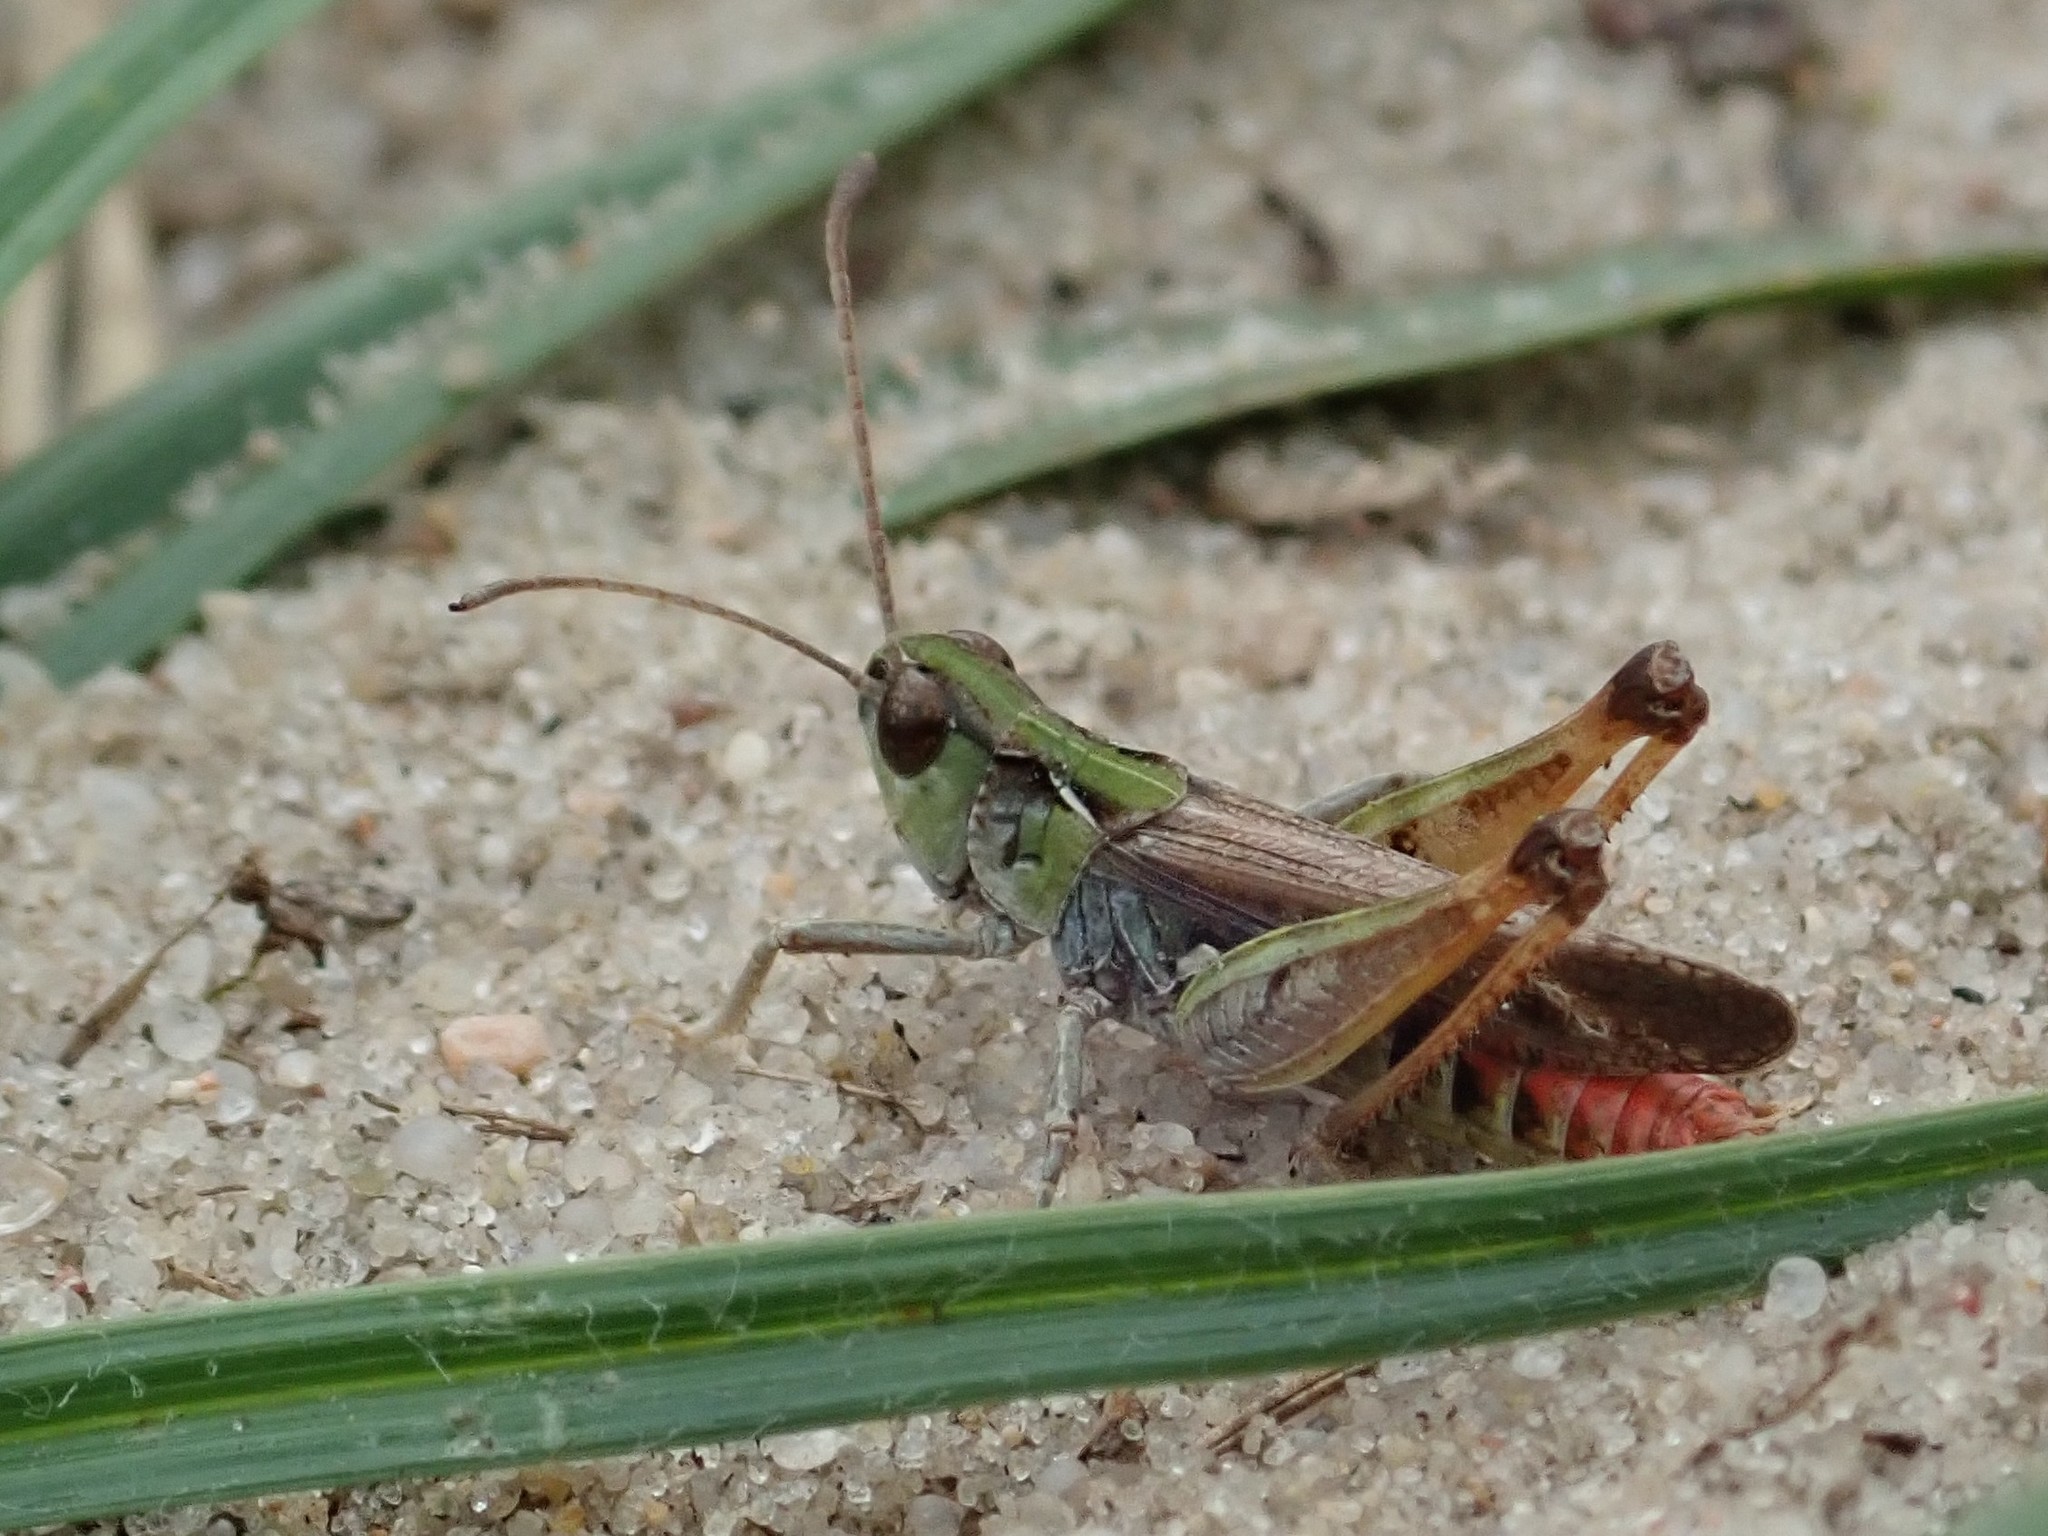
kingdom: Animalia
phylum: Arthropoda
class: Insecta
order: Orthoptera
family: Acrididae
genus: Myrmeleotettix
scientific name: Myrmeleotettix maculatus
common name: Mottled grasshopper
